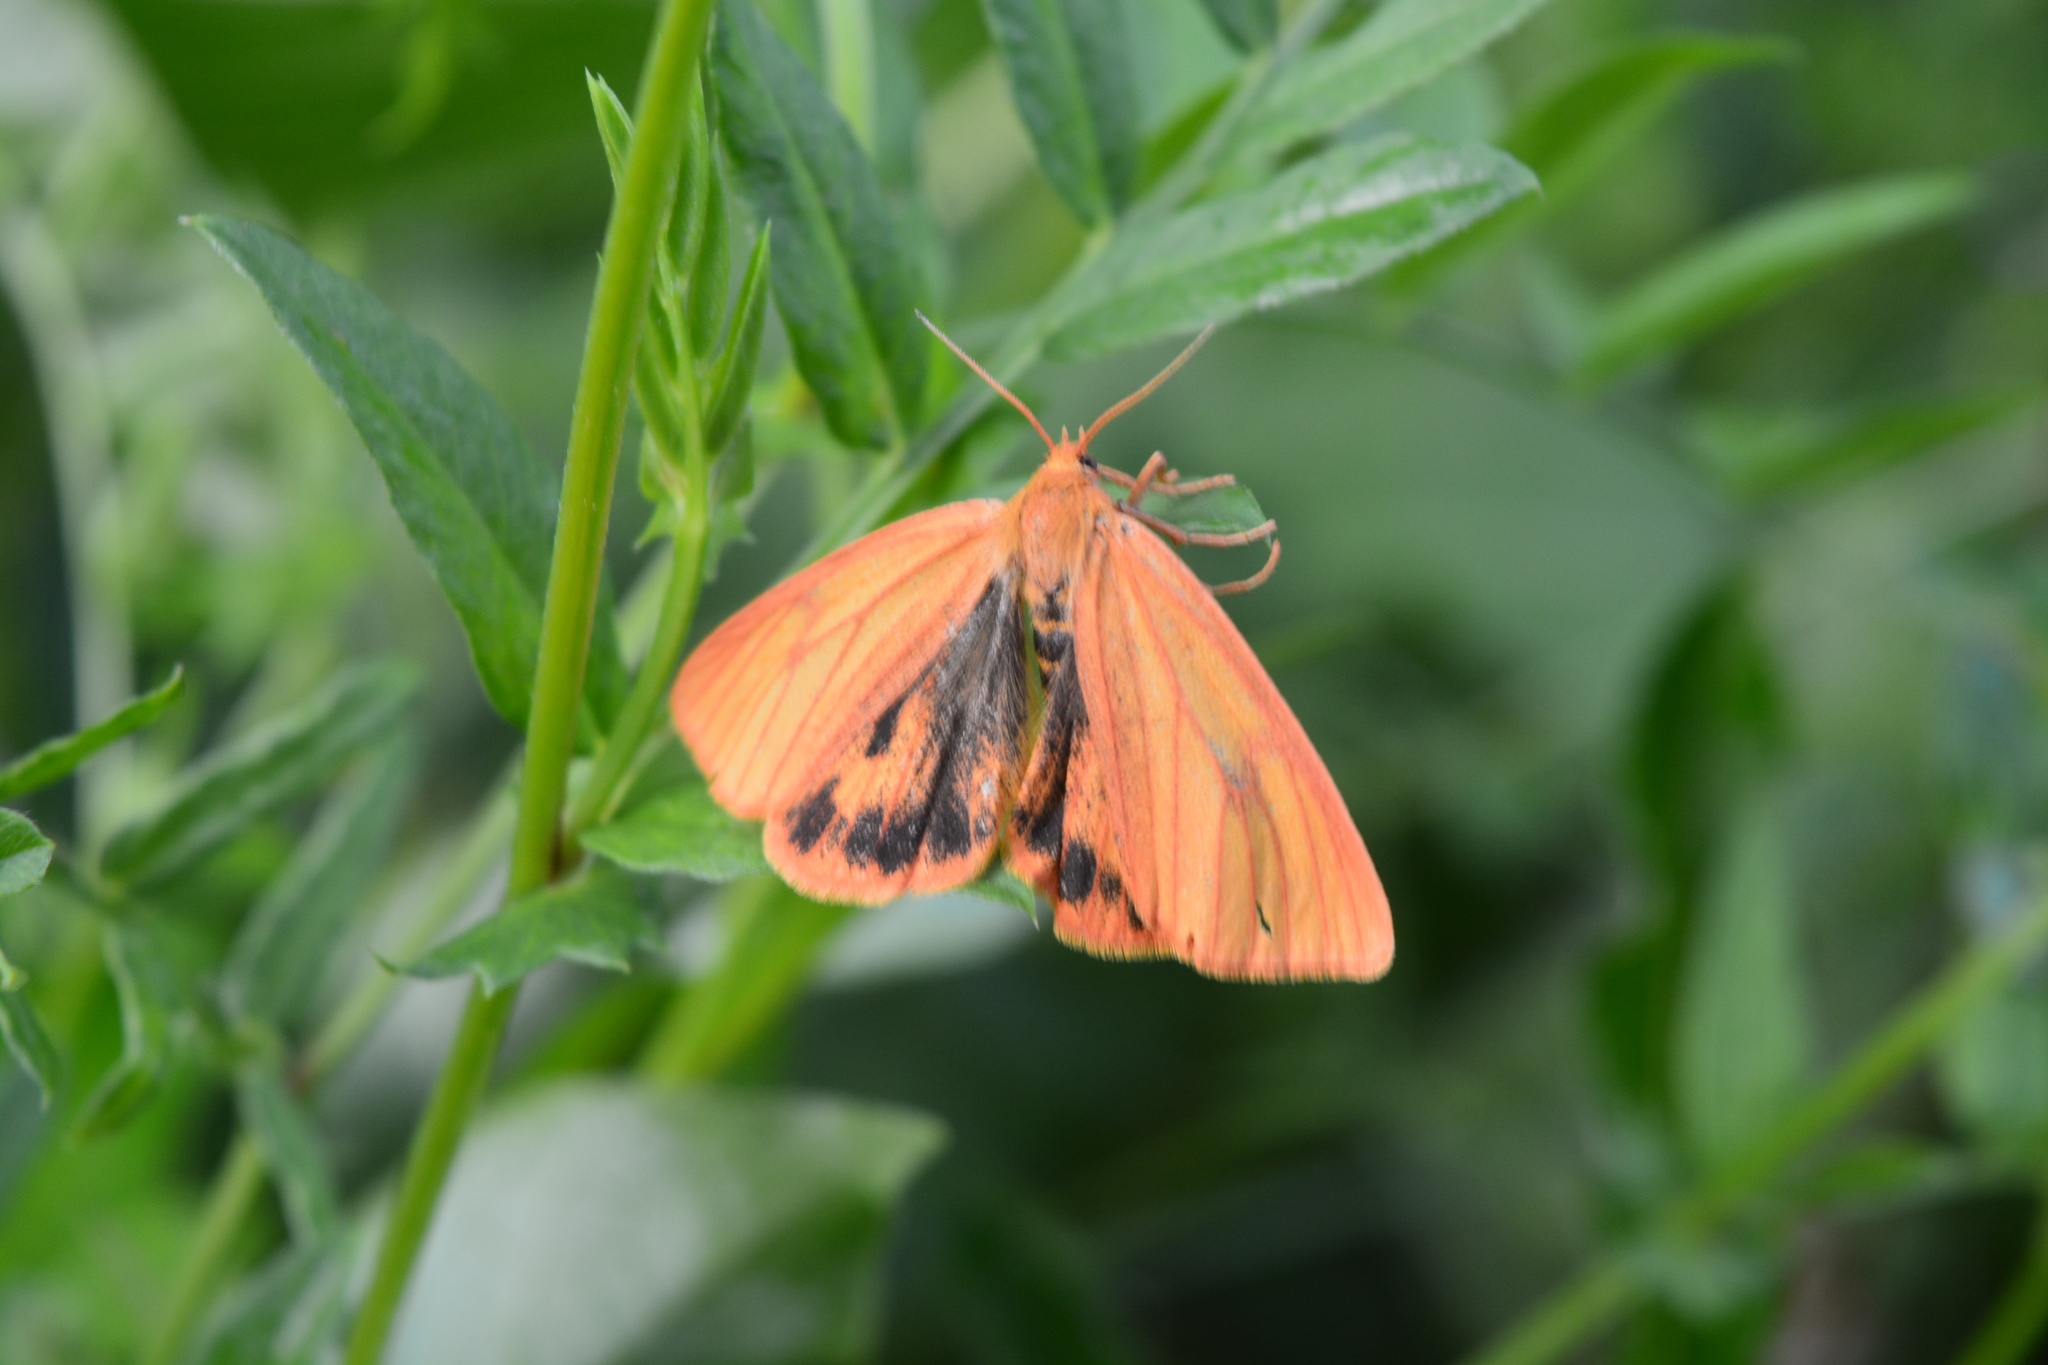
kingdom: Animalia
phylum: Arthropoda
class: Insecta
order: Lepidoptera
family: Erebidae
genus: Diacrisia
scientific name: Diacrisia sannio
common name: Clouded buff
